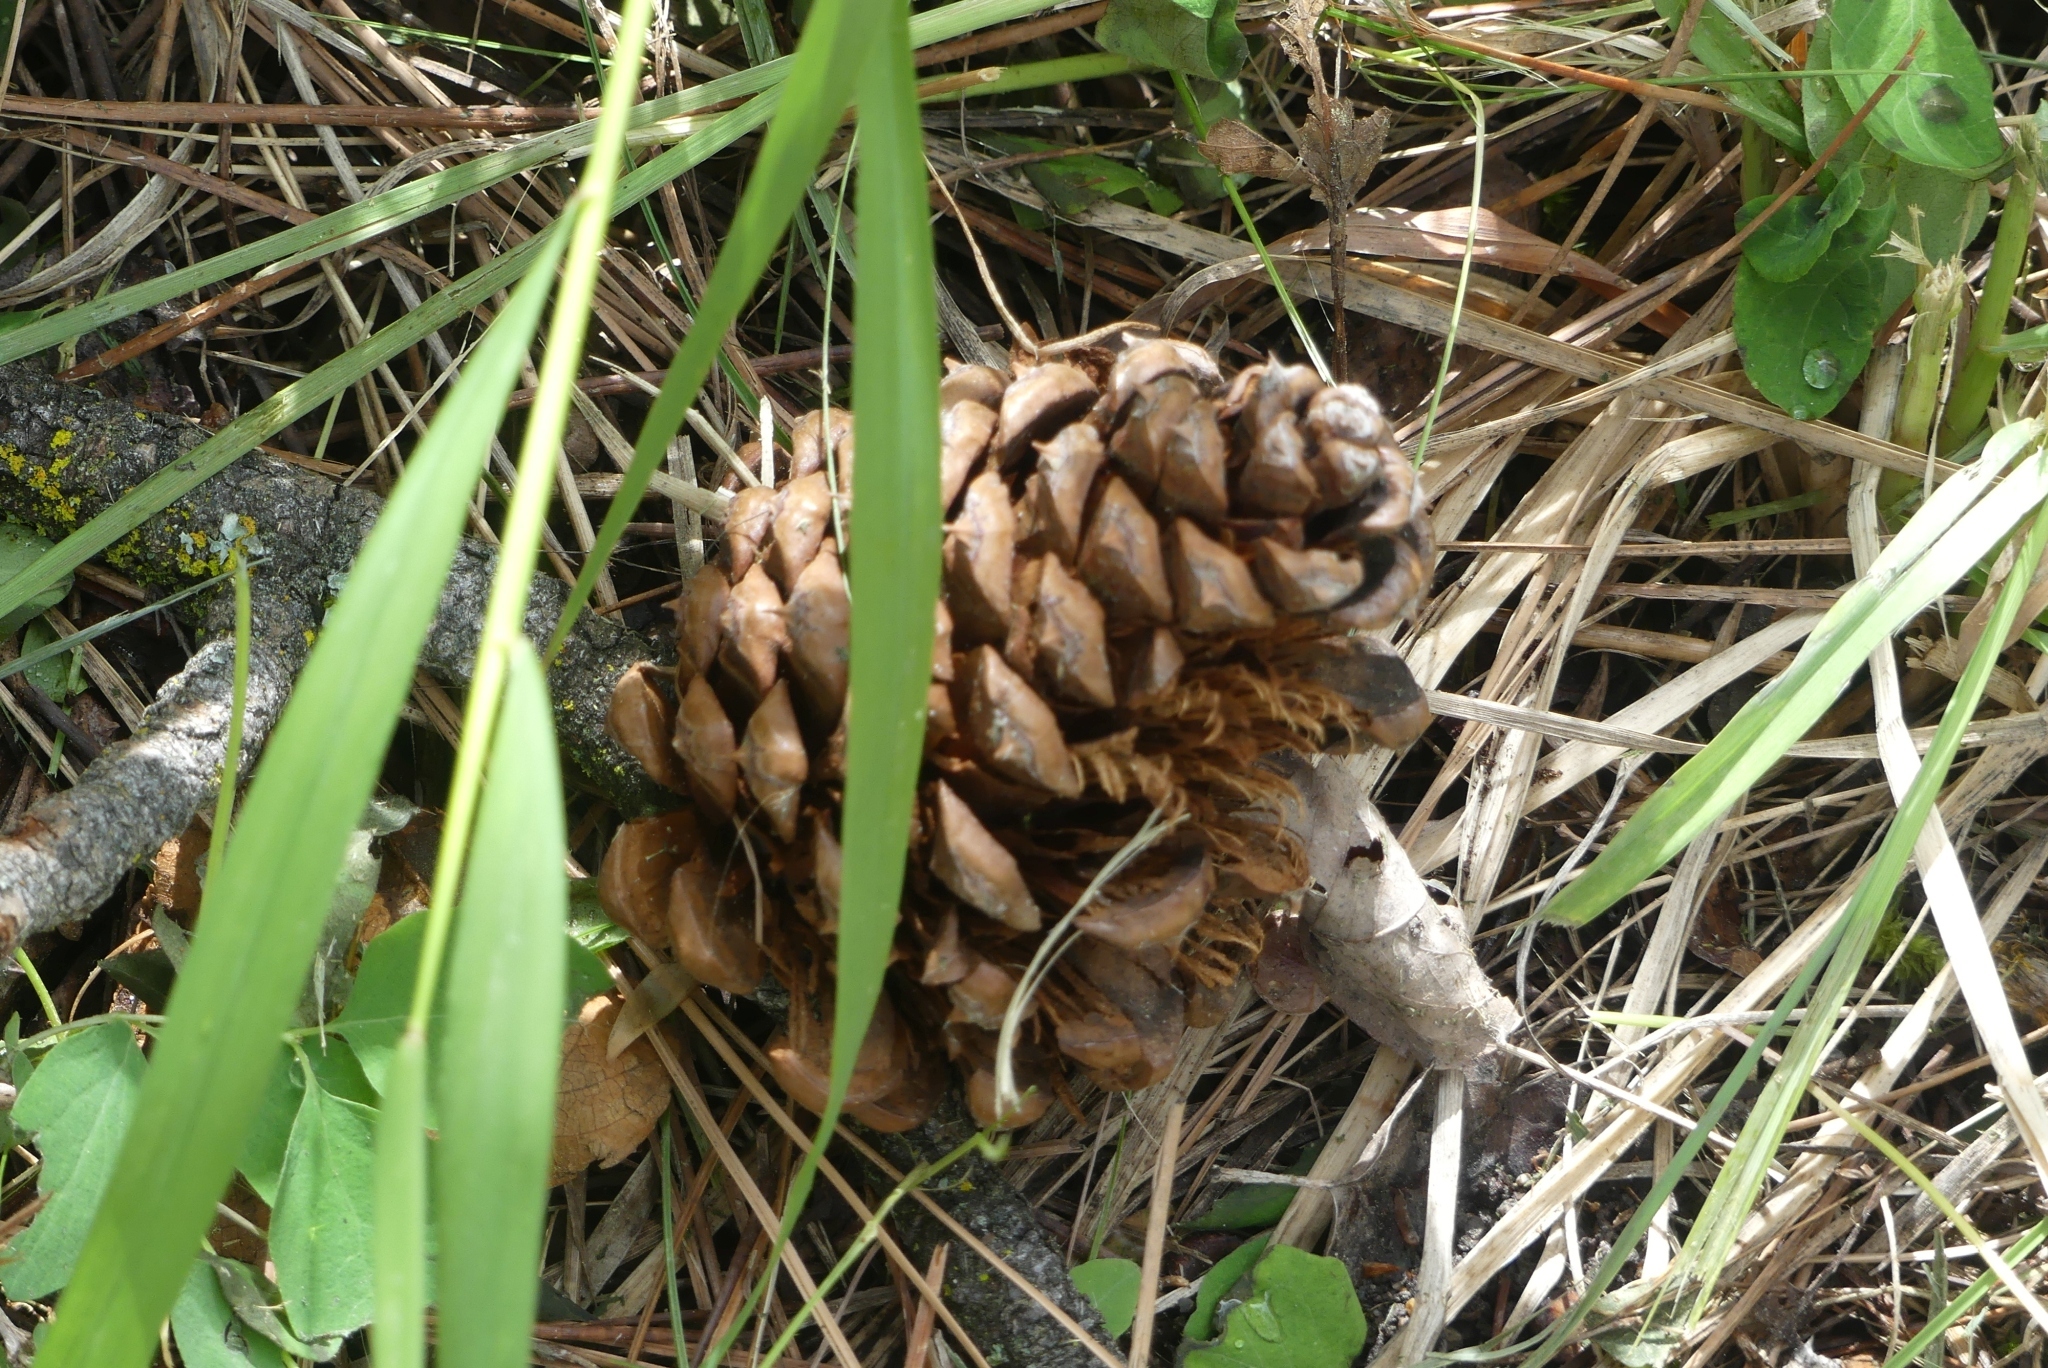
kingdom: Plantae
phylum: Tracheophyta
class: Pinopsida
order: Pinales
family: Pinaceae
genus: Pinus
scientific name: Pinus ponderosa
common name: Western yellow-pine
